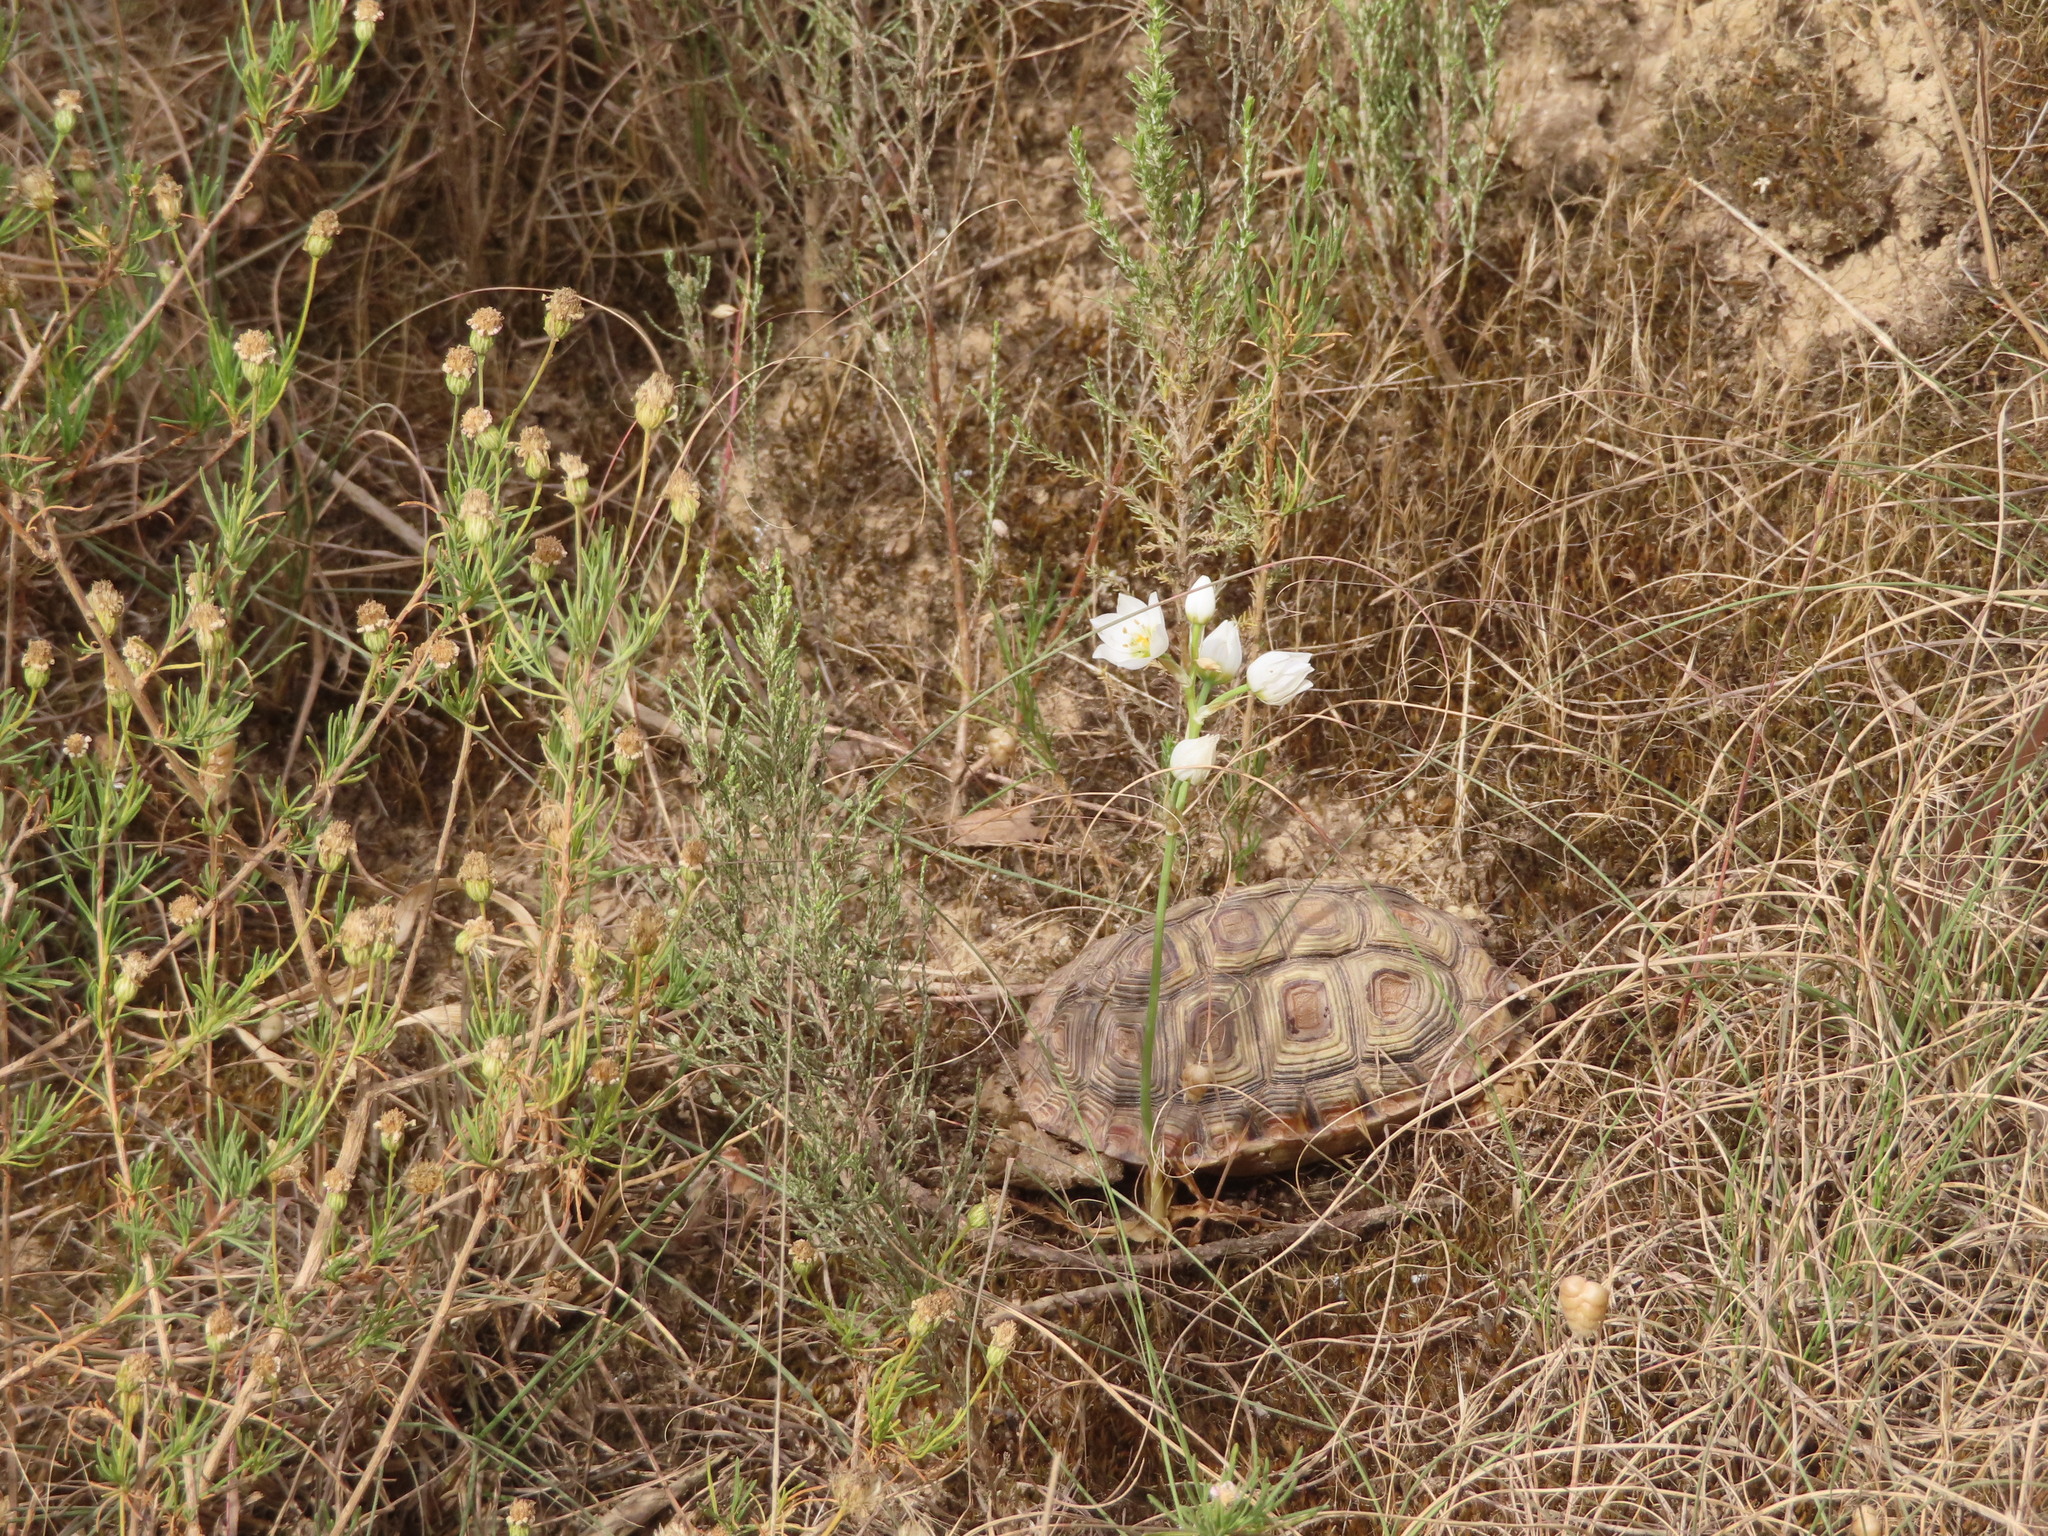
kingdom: Animalia
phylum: Chordata
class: Testudines
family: Testudinidae
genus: Homopus
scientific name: Homopus areolatus
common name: Parrot-beaked tortoise
